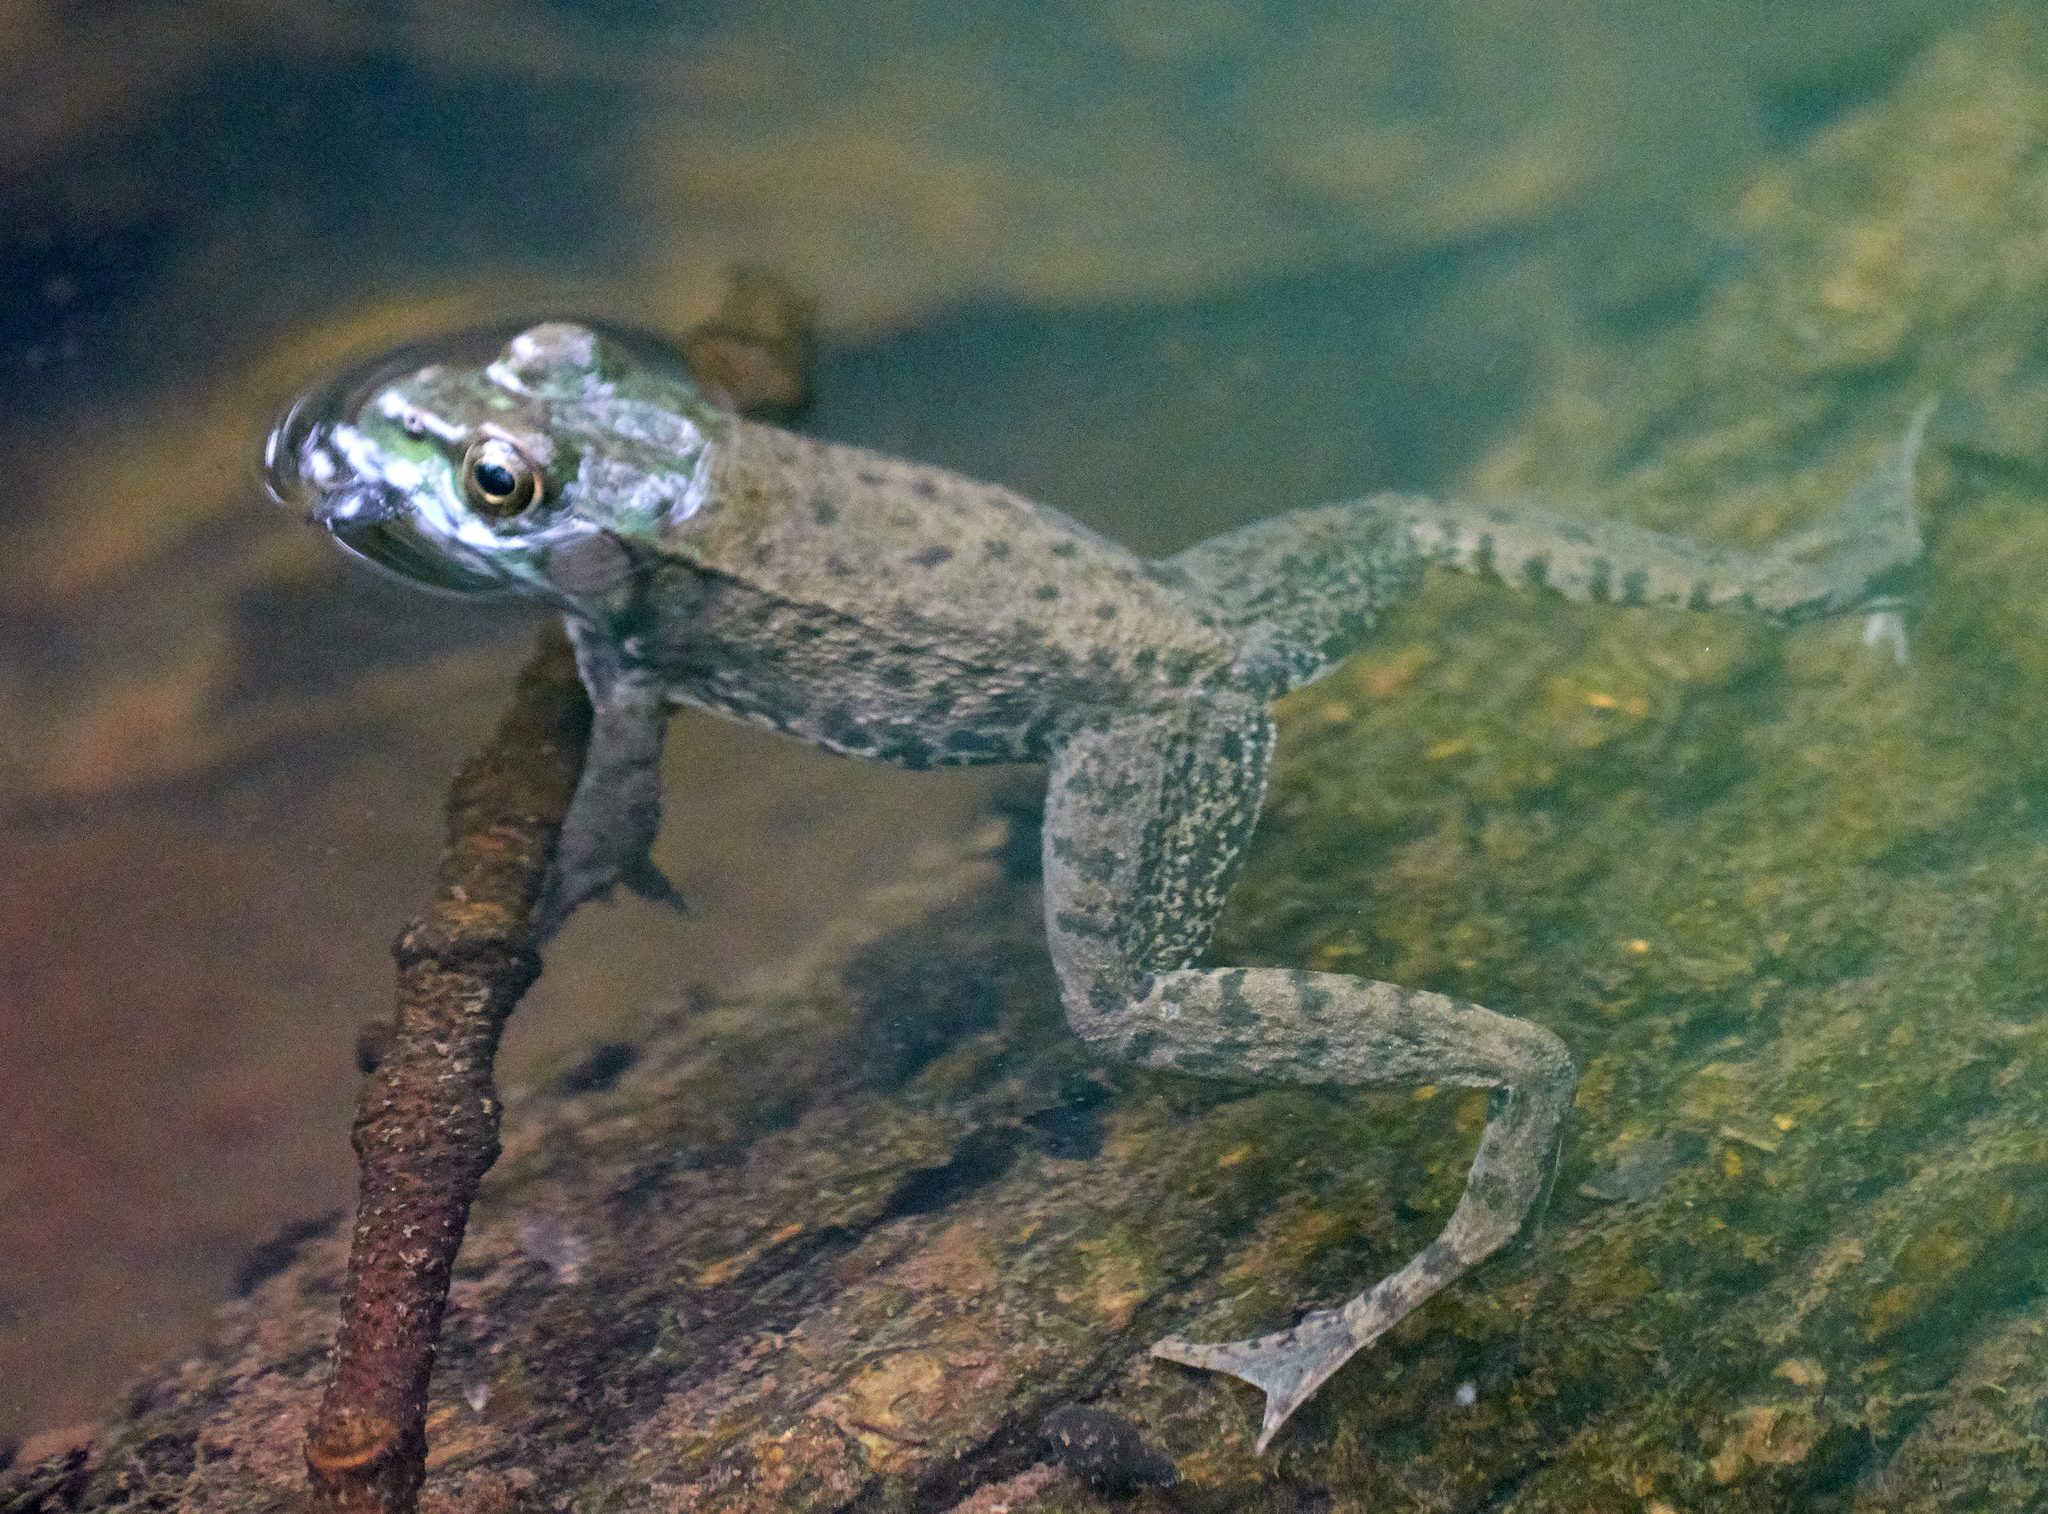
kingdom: Animalia
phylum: Chordata
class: Amphibia
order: Anura
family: Ranidae
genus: Lithobates
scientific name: Lithobates clamitans
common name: Green frog
